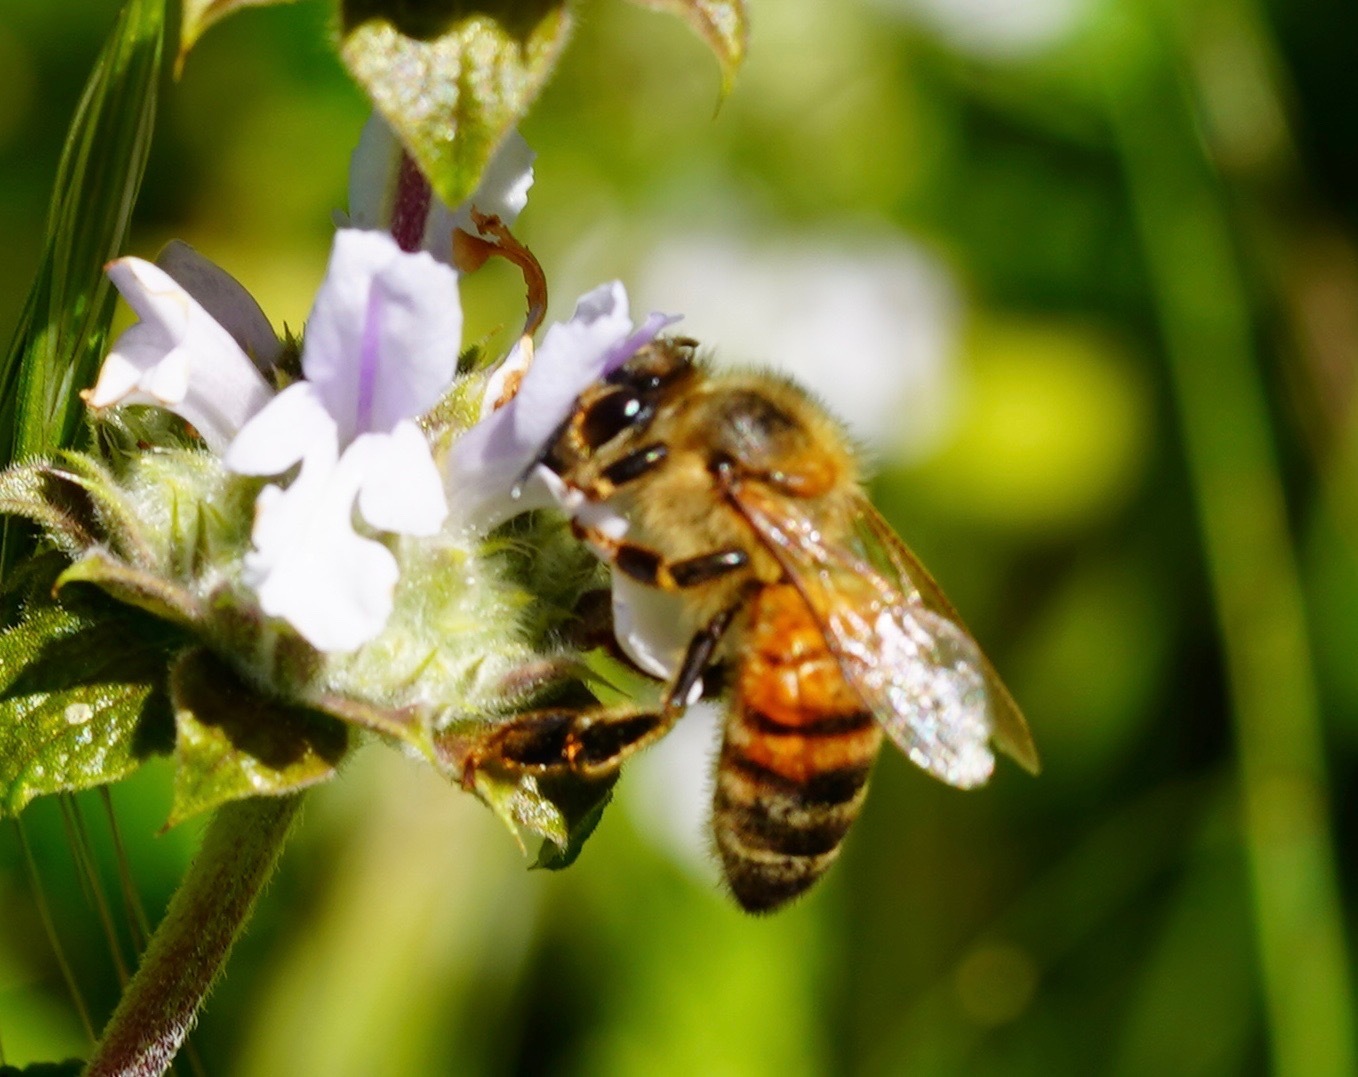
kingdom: Animalia
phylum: Arthropoda
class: Insecta
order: Hymenoptera
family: Apidae
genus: Apis
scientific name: Apis mellifera
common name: Honey bee
